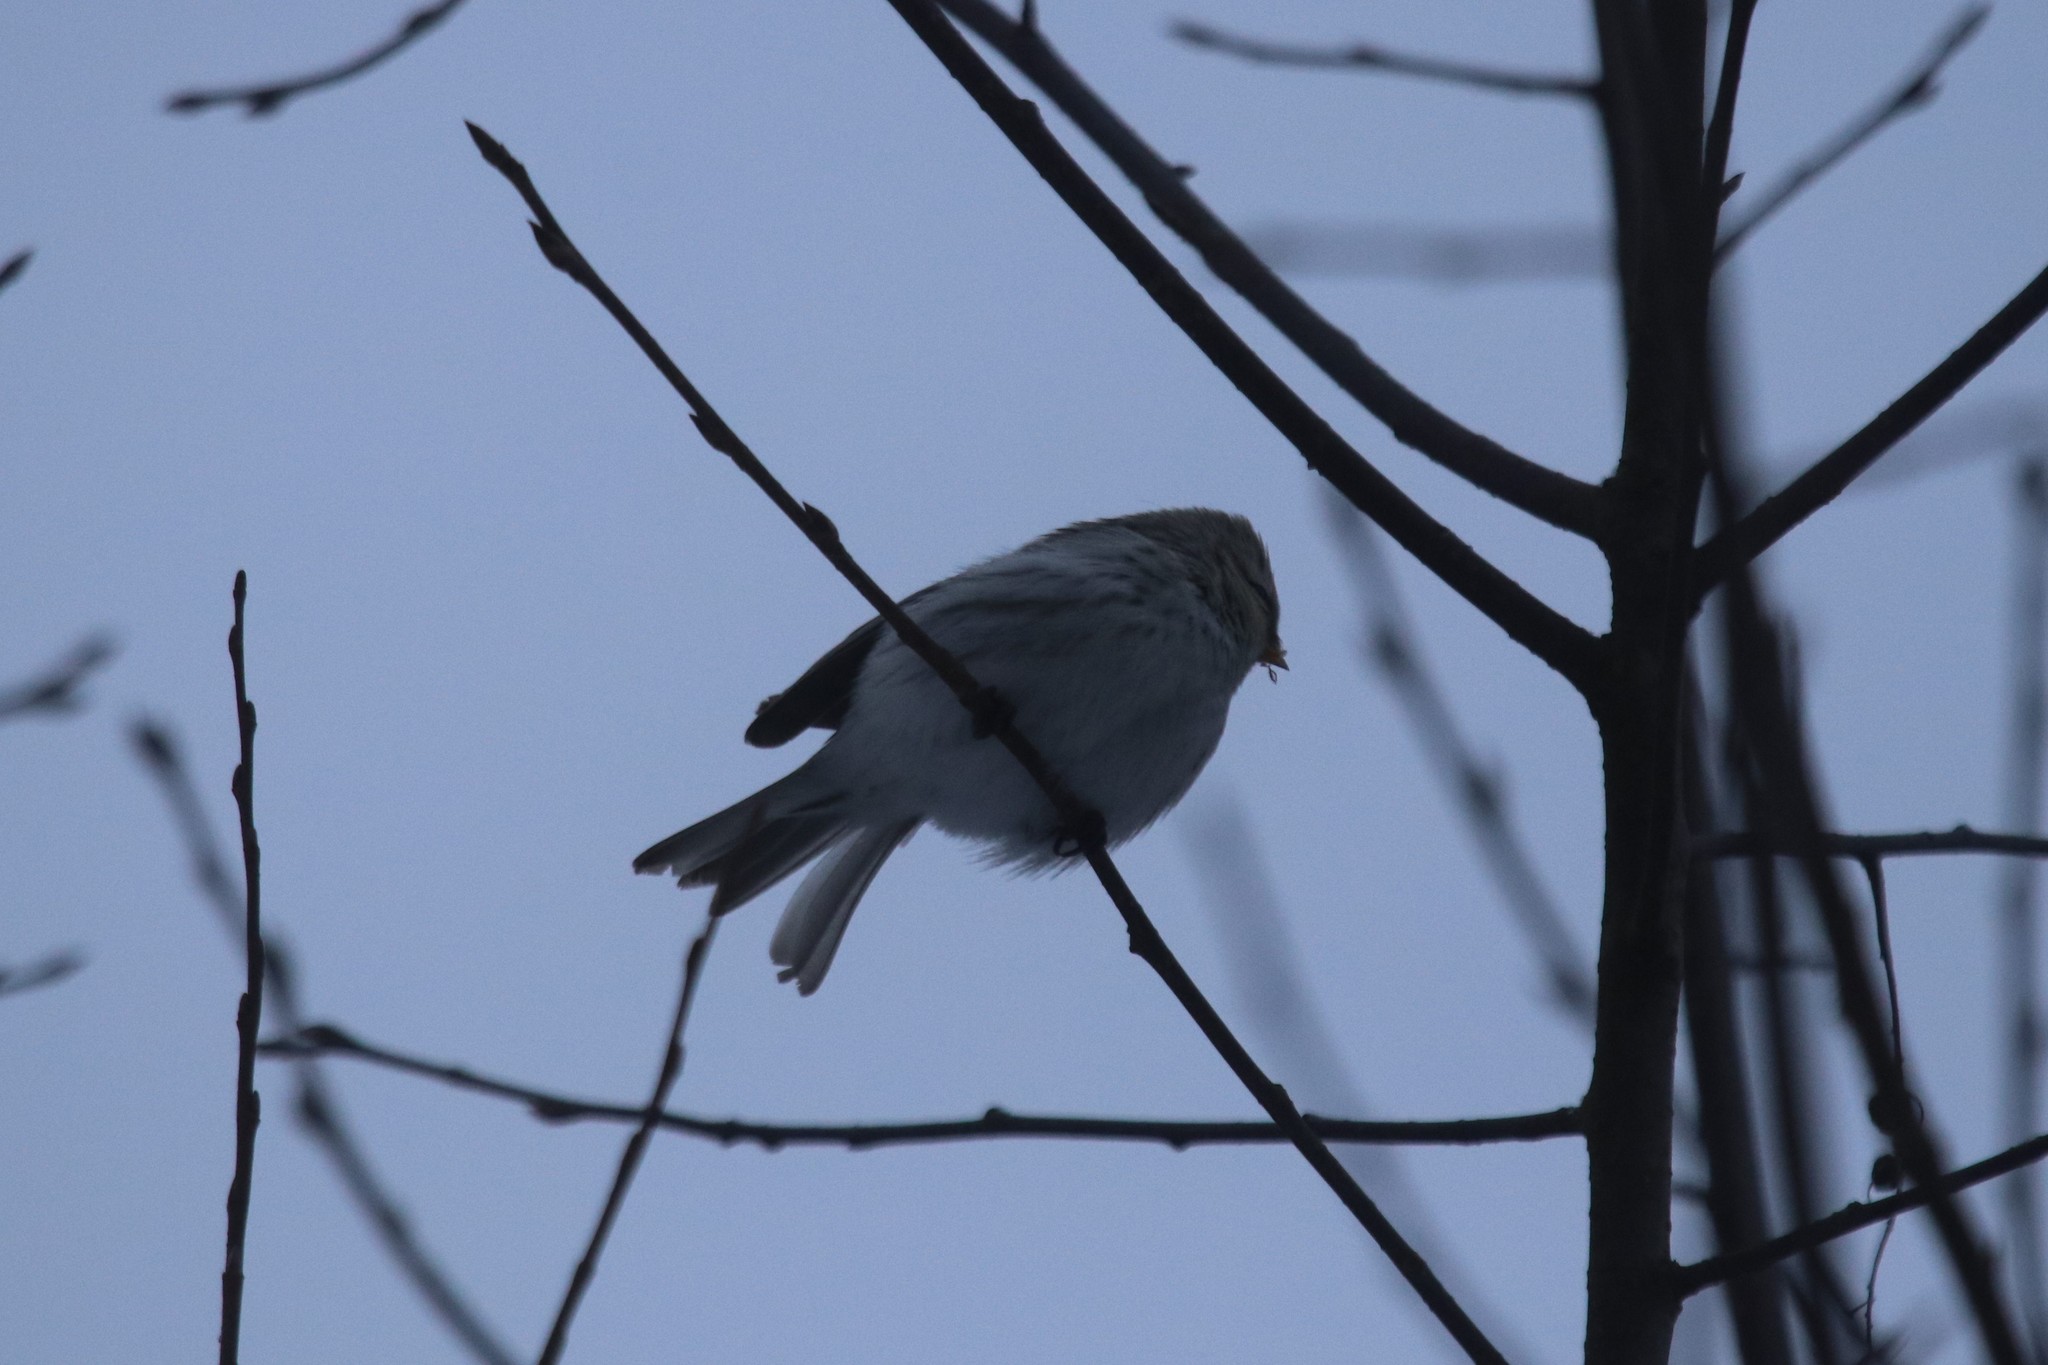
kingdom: Animalia
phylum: Chordata
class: Aves
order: Passeriformes
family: Fringillidae
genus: Acanthis
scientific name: Acanthis flammea
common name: Common redpoll
